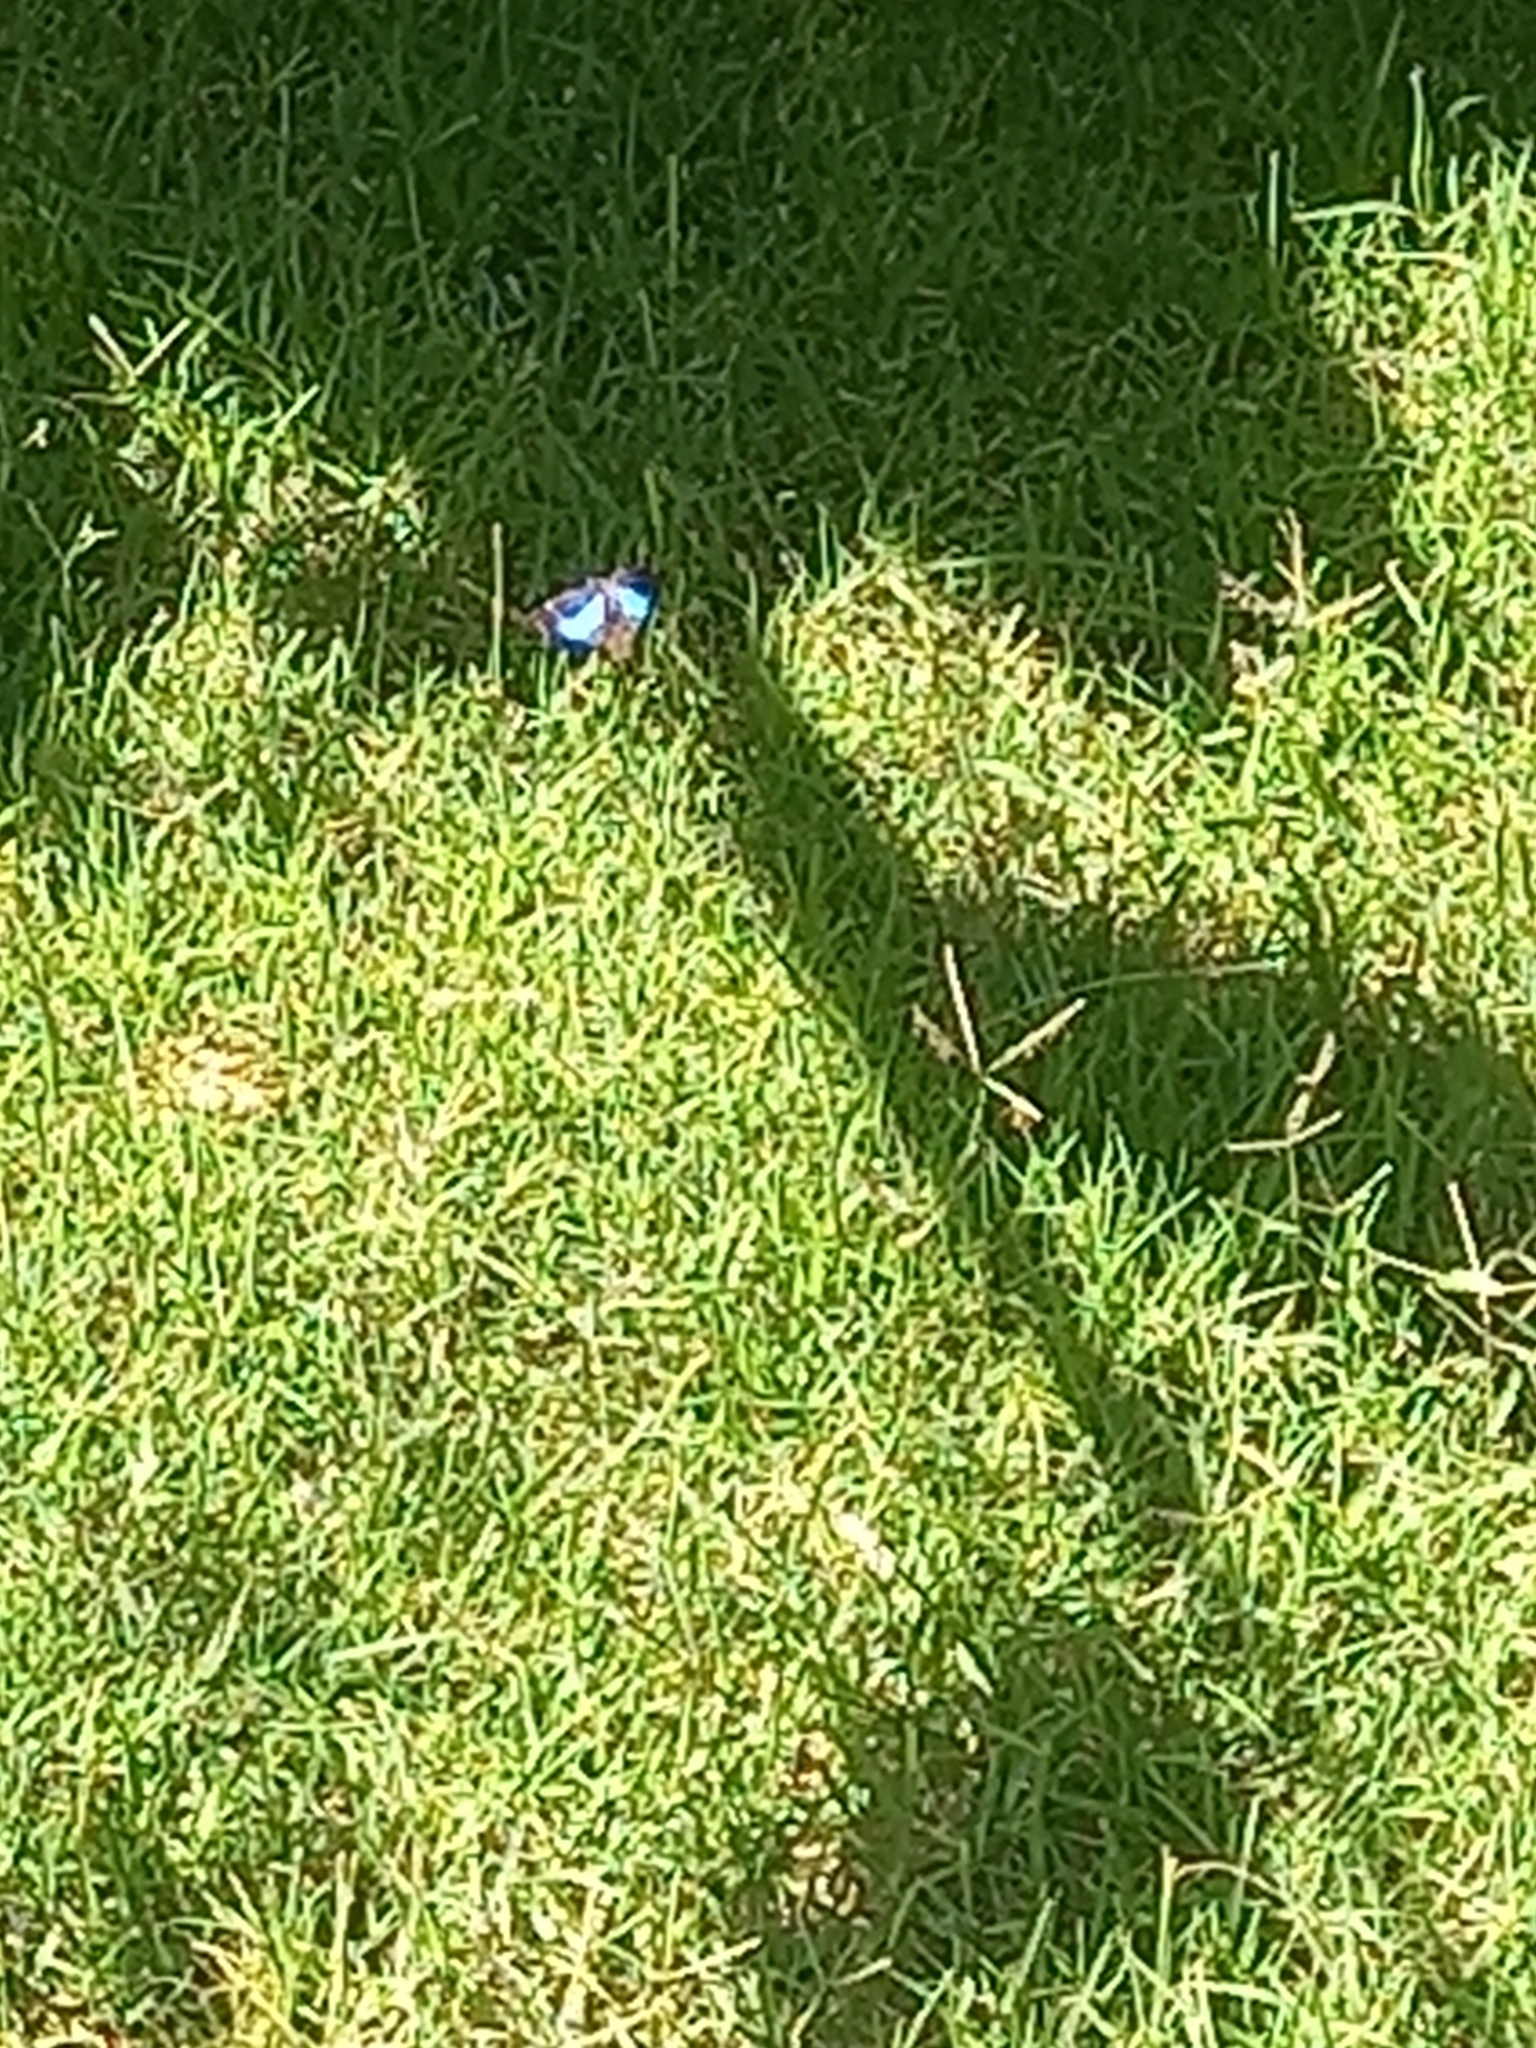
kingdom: Animalia
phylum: Arthropoda
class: Insecta
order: Lepidoptera
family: Nymphalidae
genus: Doxocopa
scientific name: Doxocopa laurentia
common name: Turquoise emperor
